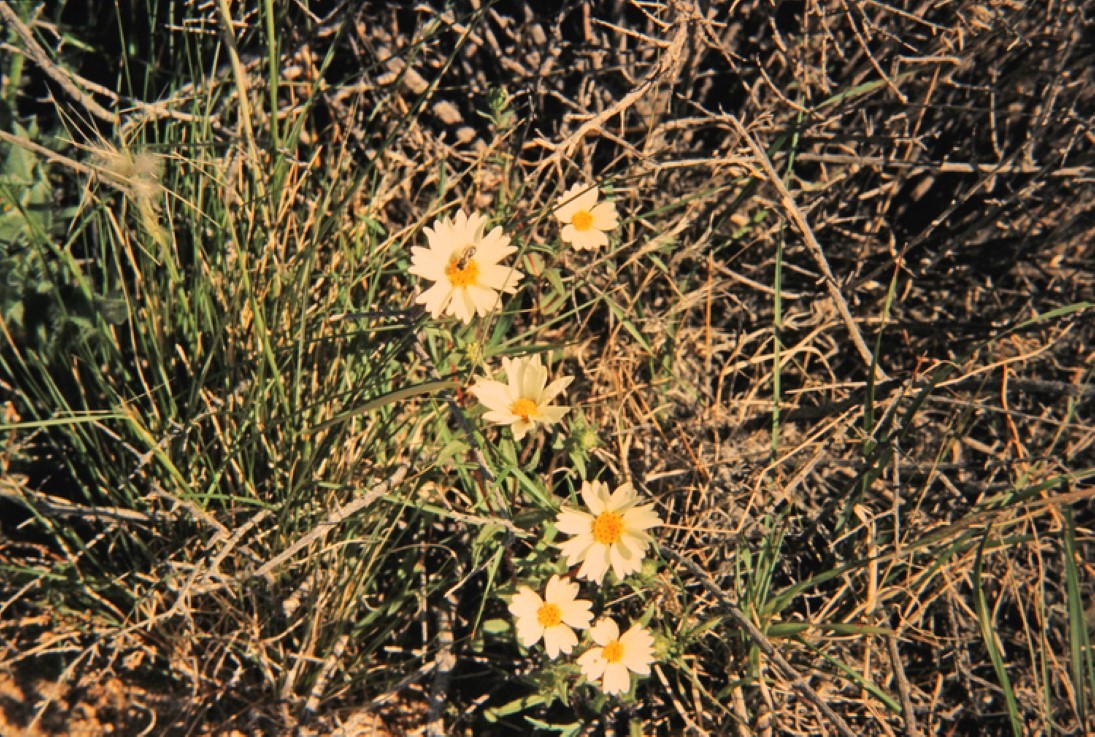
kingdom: Plantae
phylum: Tracheophyta
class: Magnoliopsida
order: Asterales
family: Asteraceae
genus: Layia
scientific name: Layia glandulosa
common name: White layia
